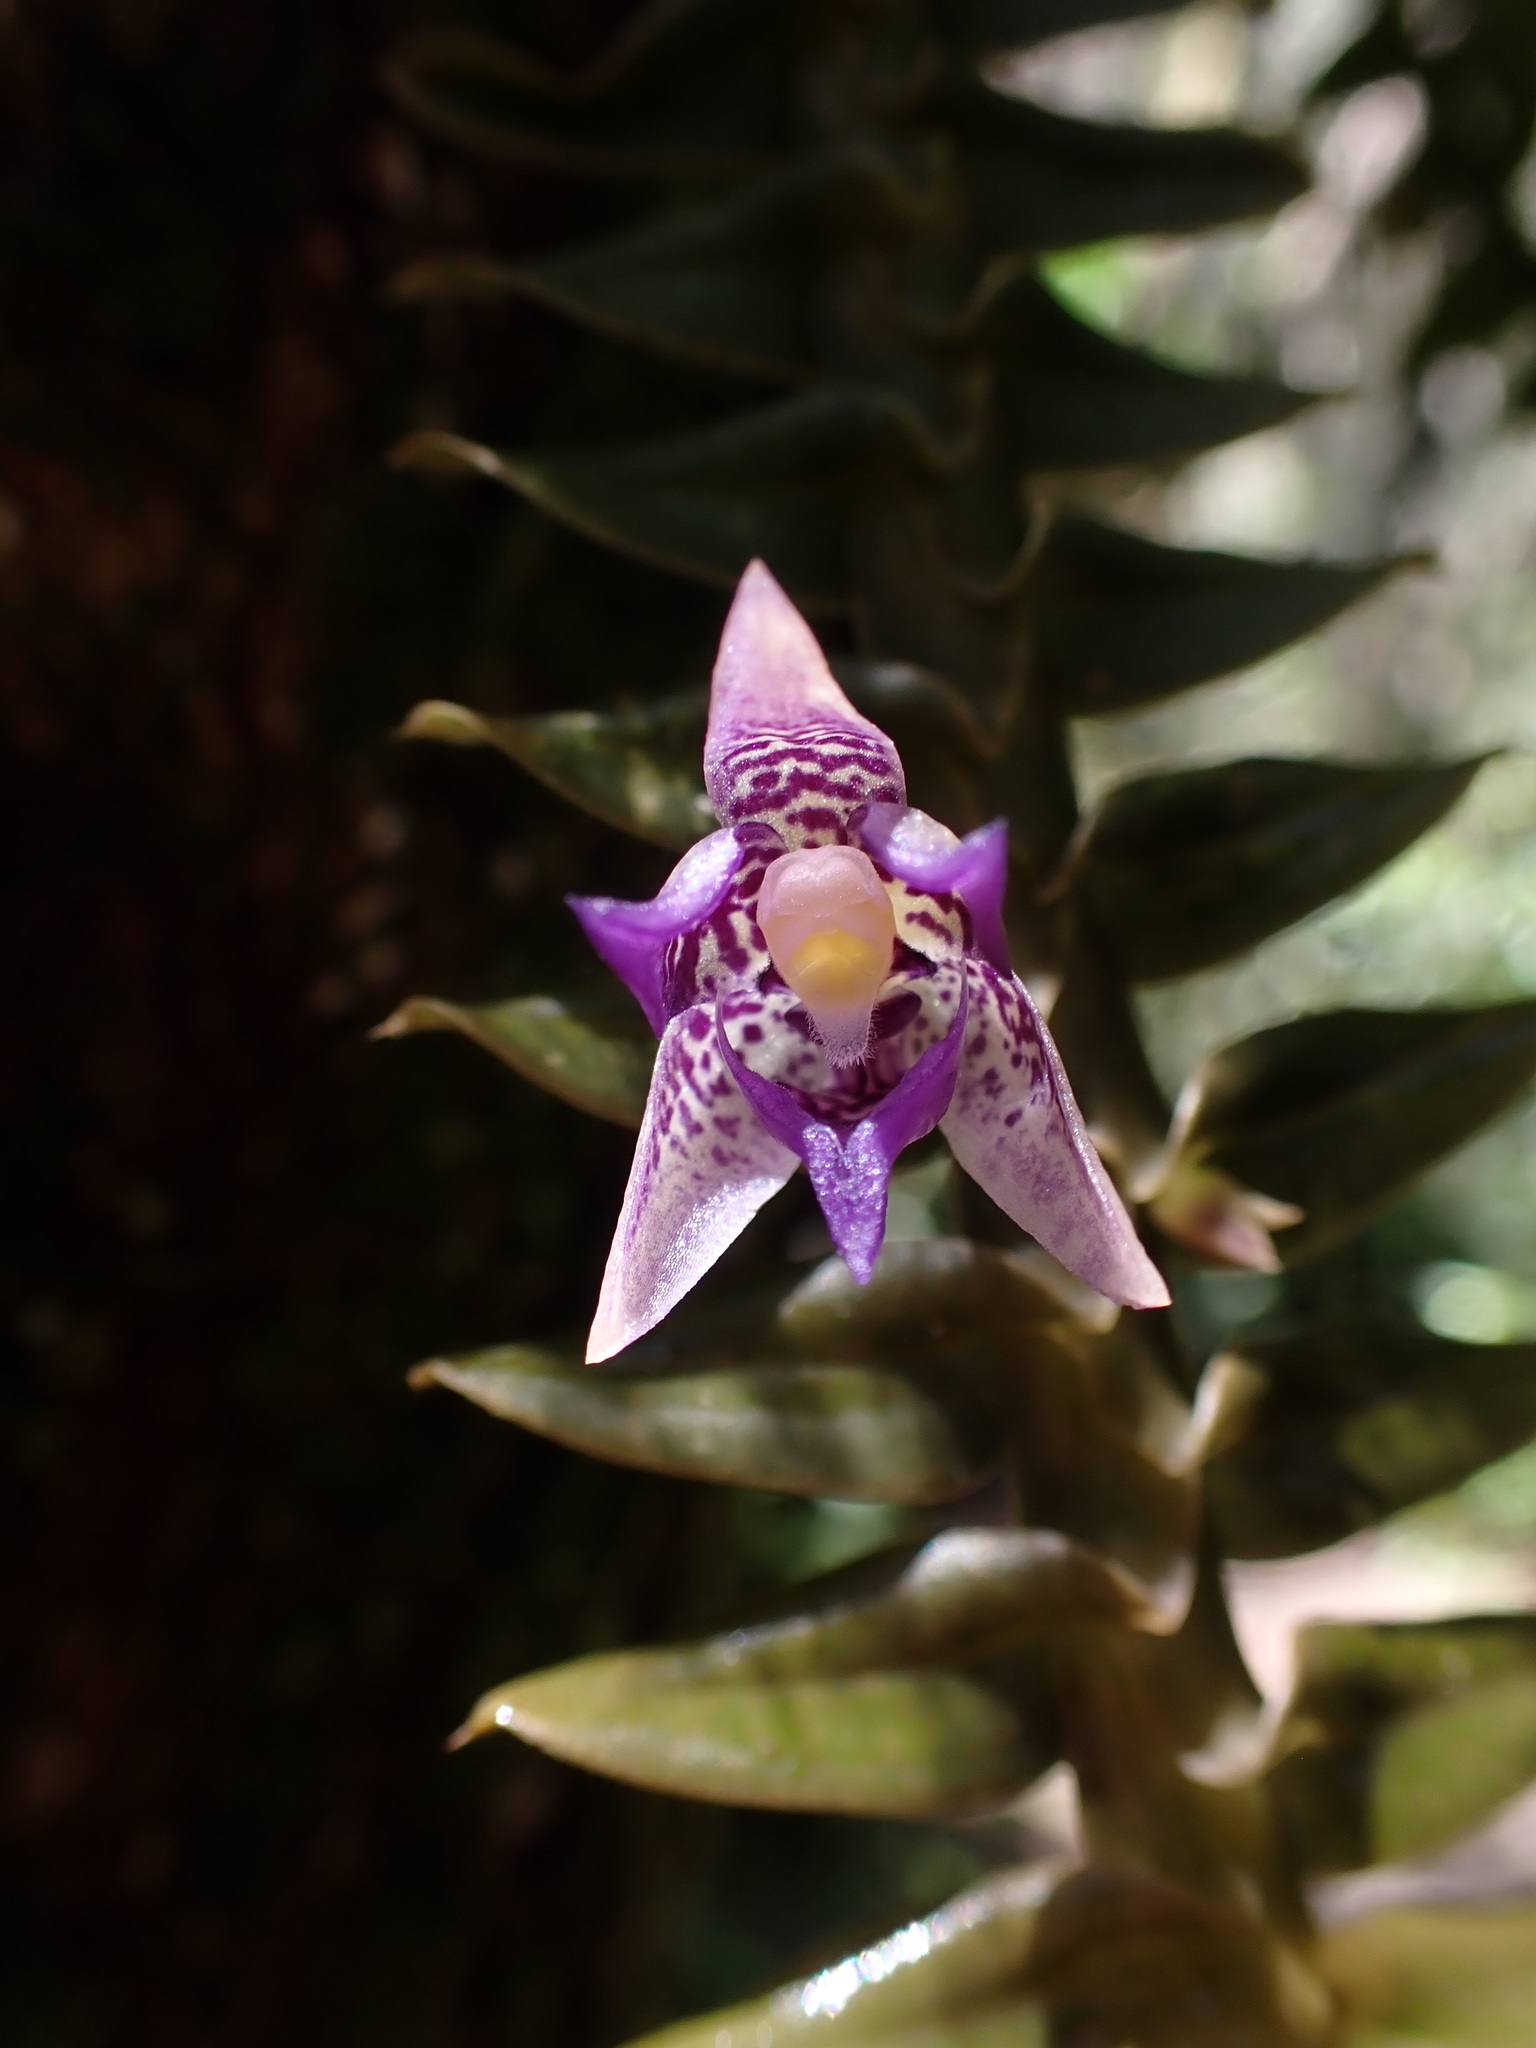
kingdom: Plantae
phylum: Tracheophyta
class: Liliopsida
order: Asparagales
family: Orchidaceae
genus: Dichaea
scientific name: Dichaea laxa
